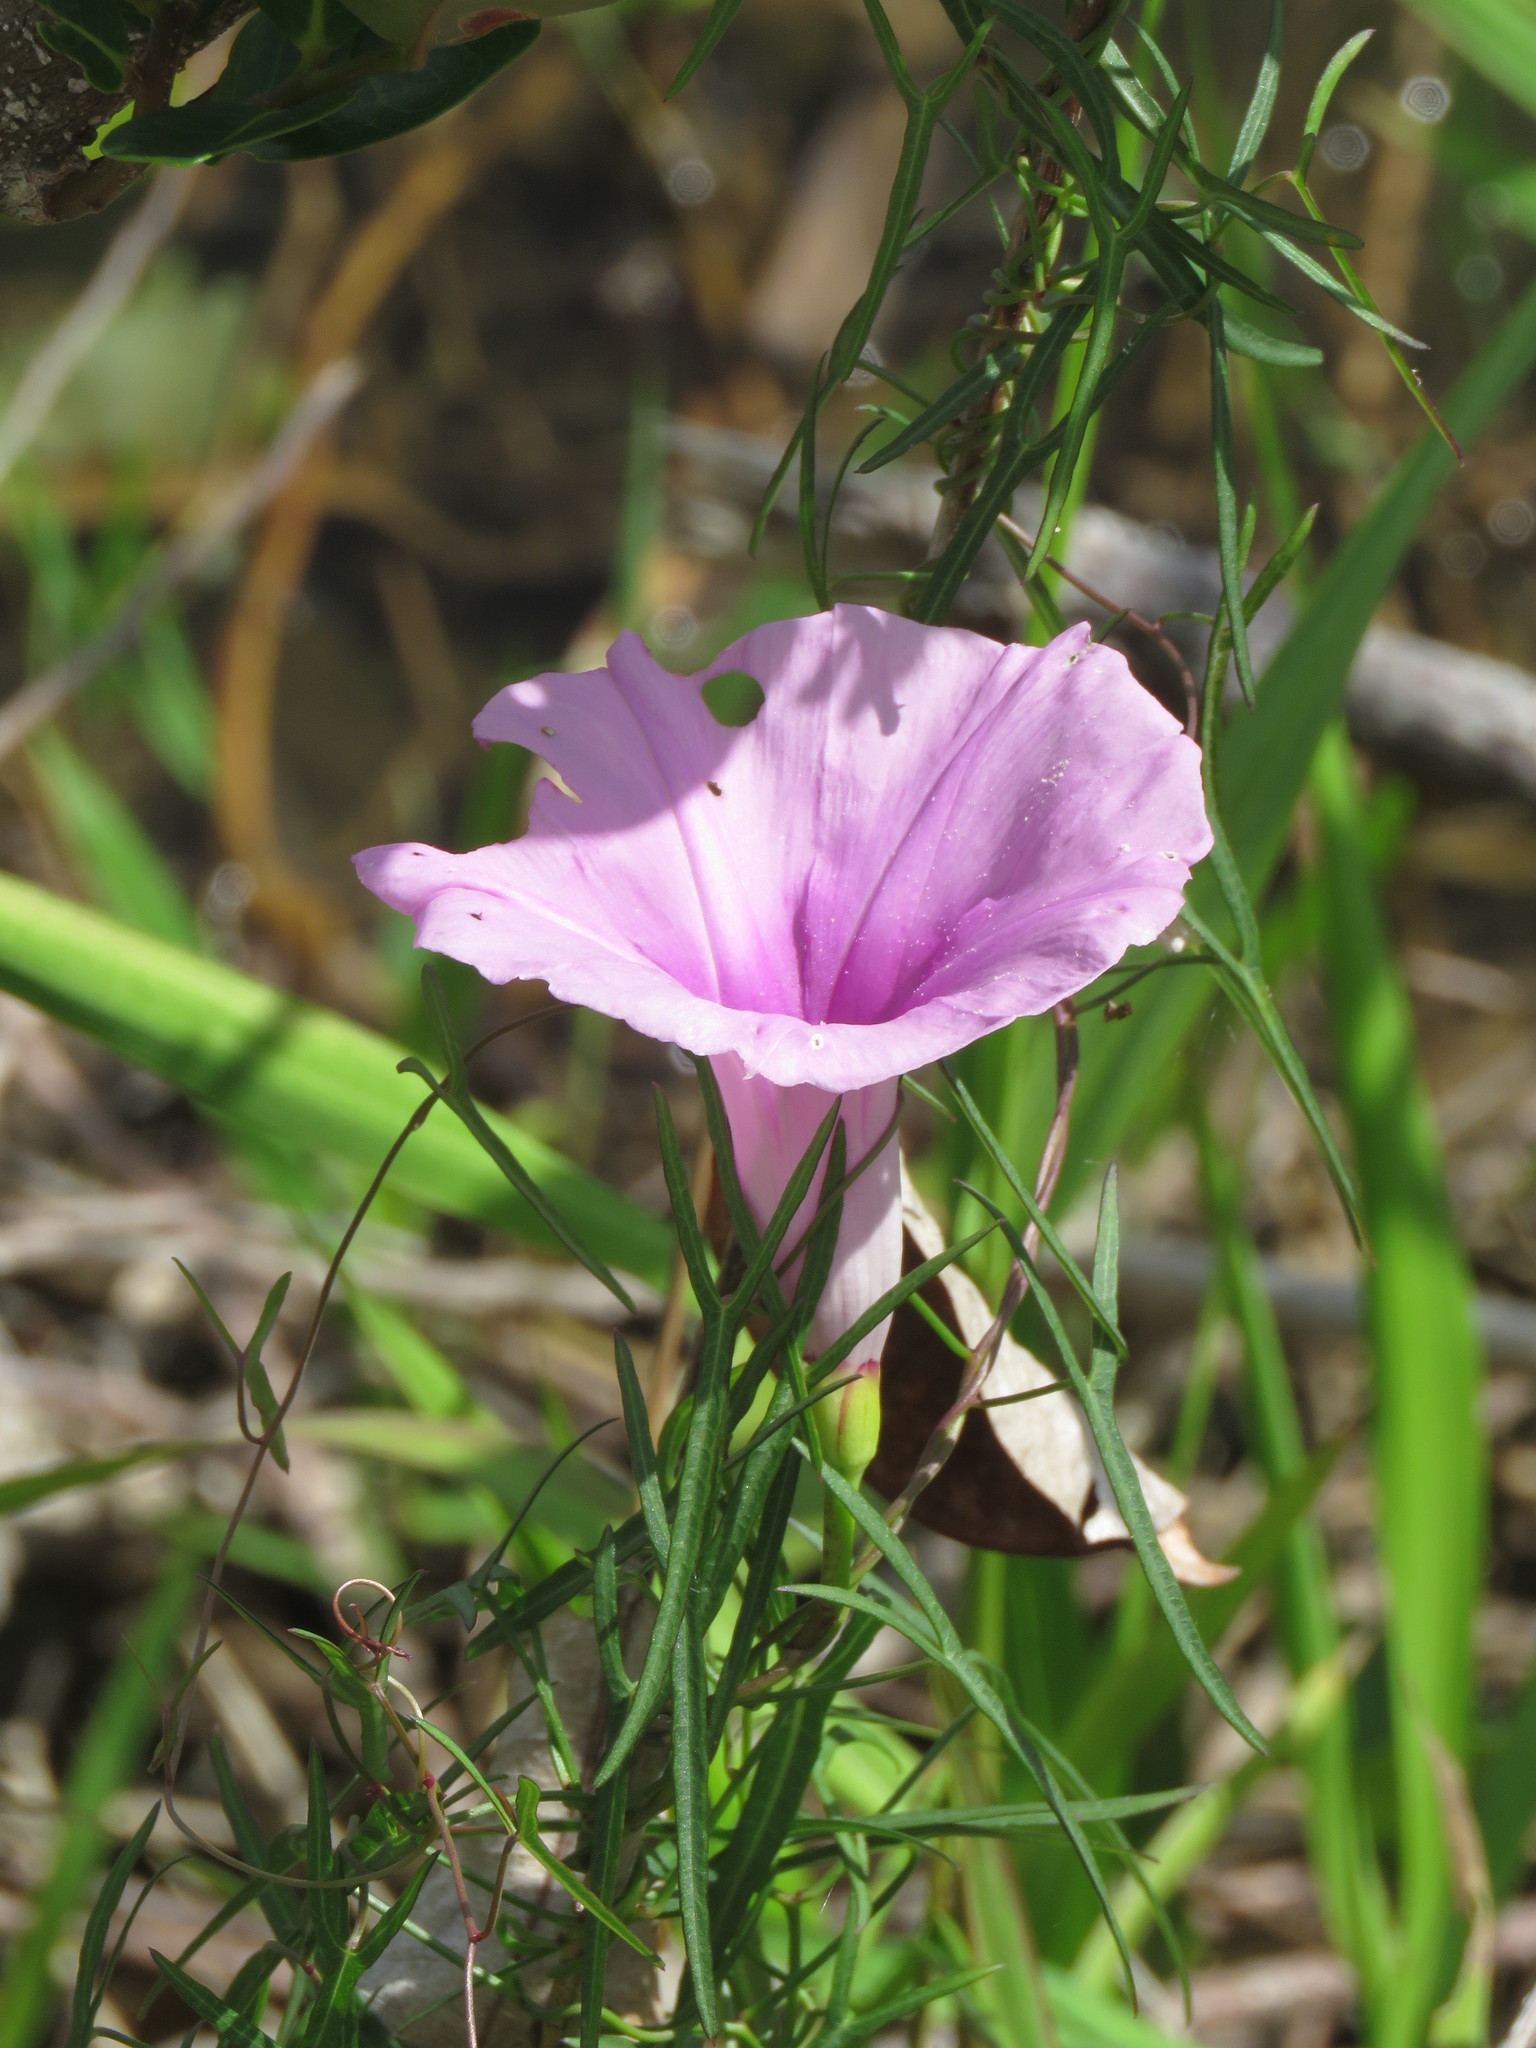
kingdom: Plantae
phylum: Tracheophyta
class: Magnoliopsida
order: Solanales
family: Convolvulaceae
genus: Ipomoea
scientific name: Ipomoea sagittata
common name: Saltmarsh morning glory
